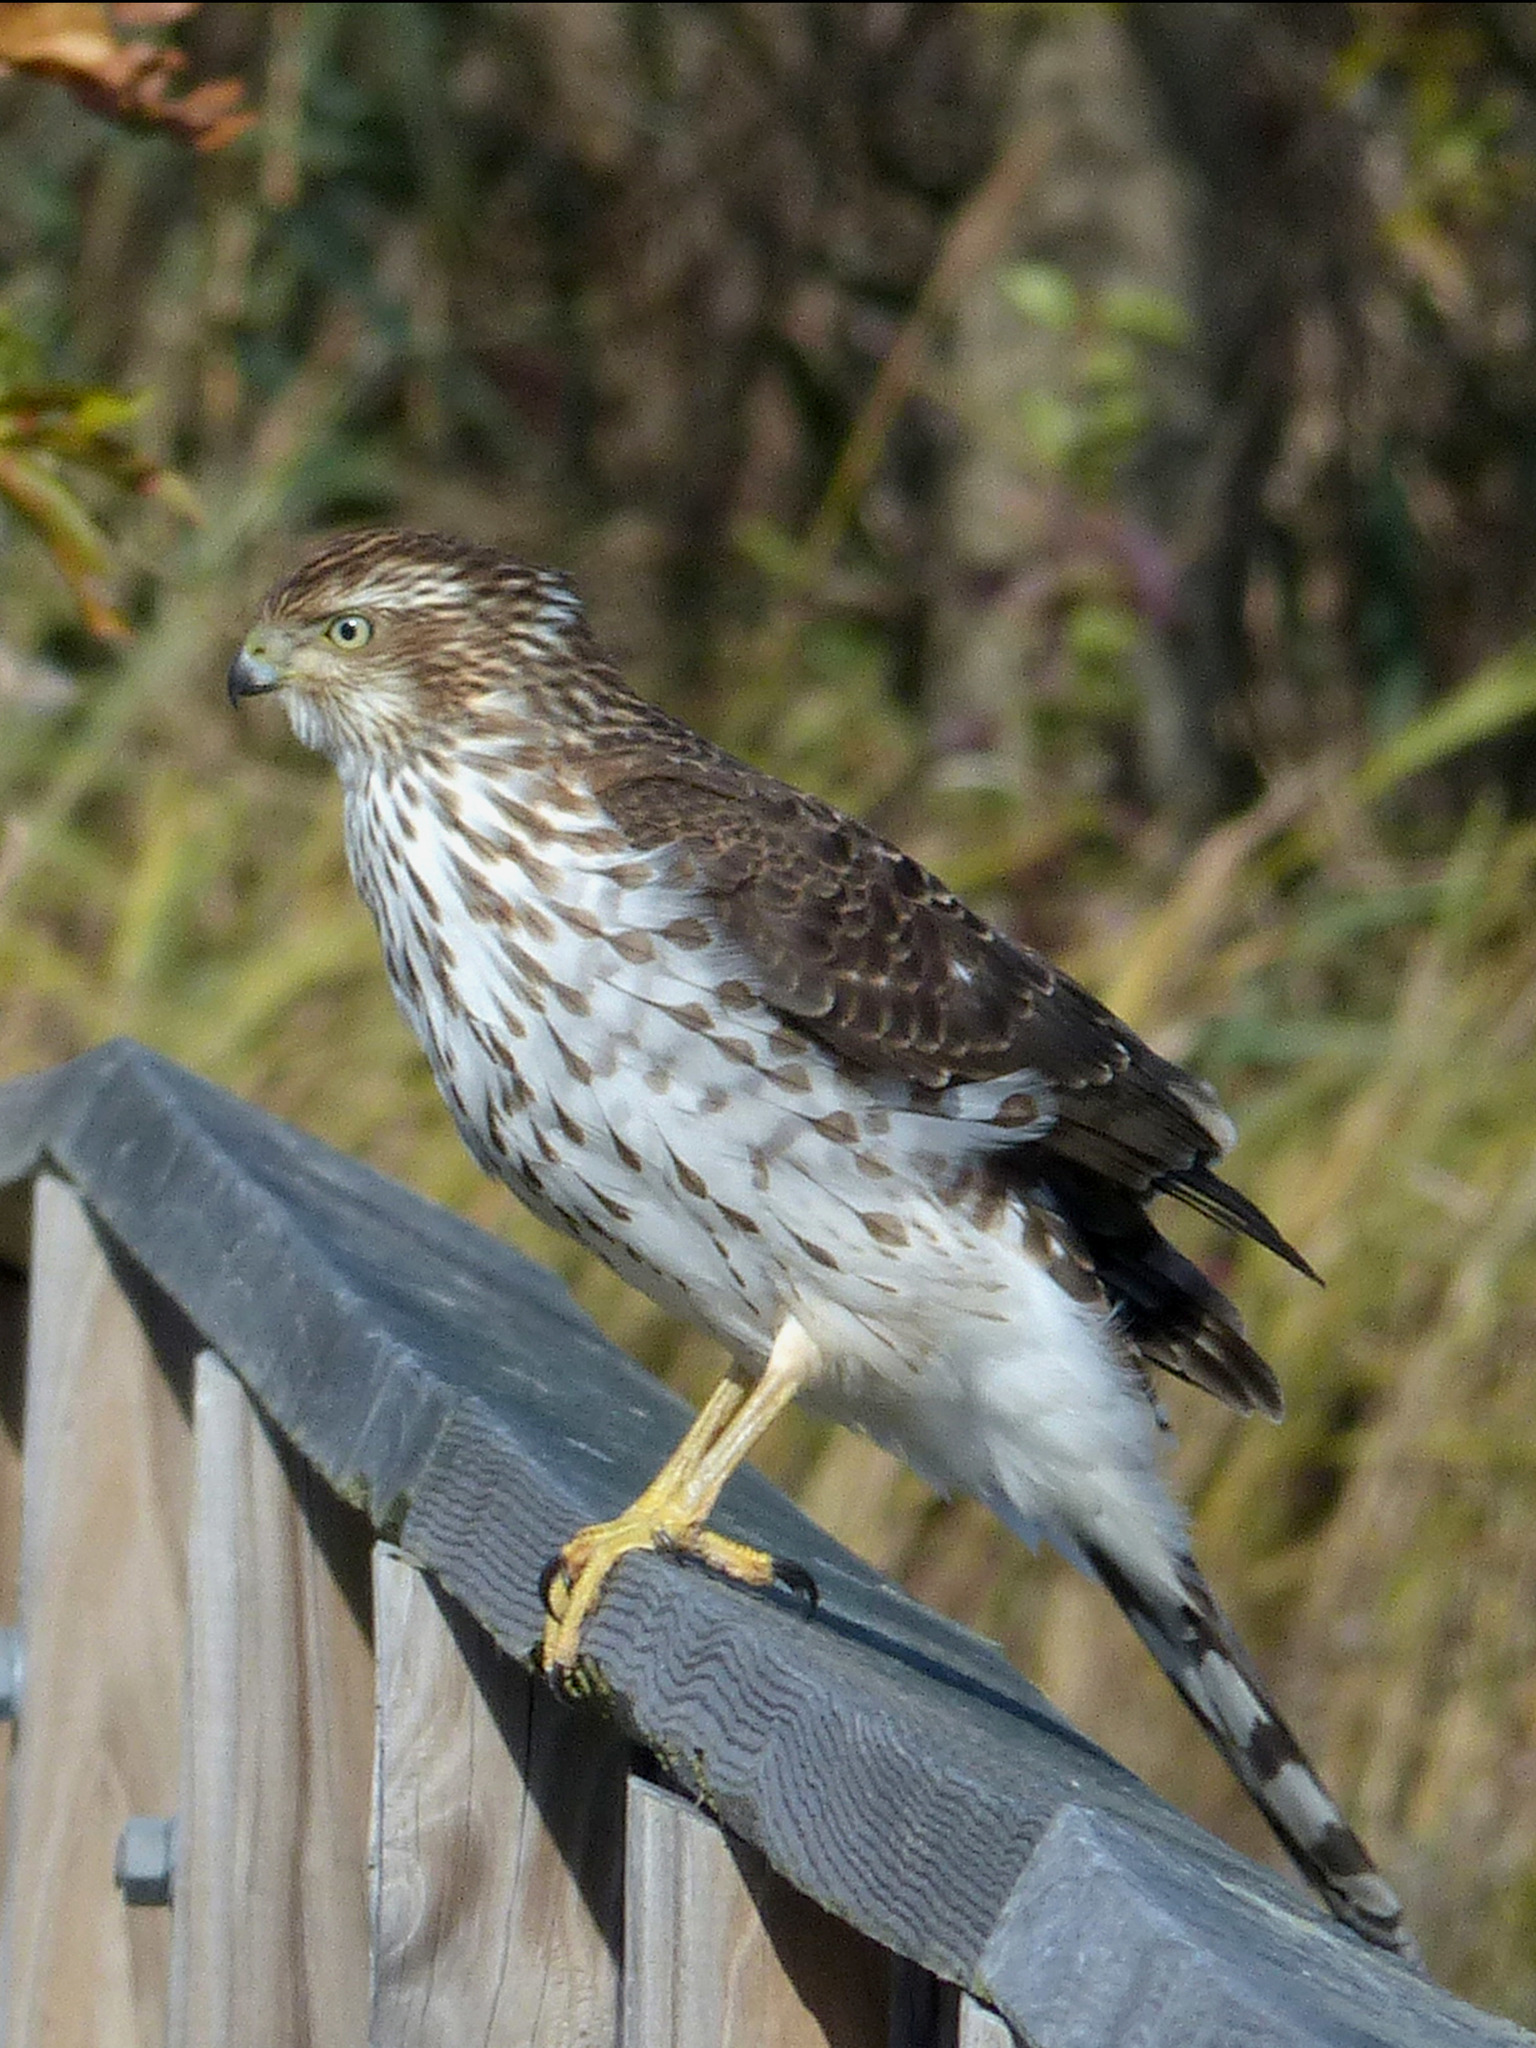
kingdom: Animalia
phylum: Chordata
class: Aves
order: Accipitriformes
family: Accipitridae
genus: Accipiter
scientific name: Accipiter cooperii
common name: Cooper's hawk
